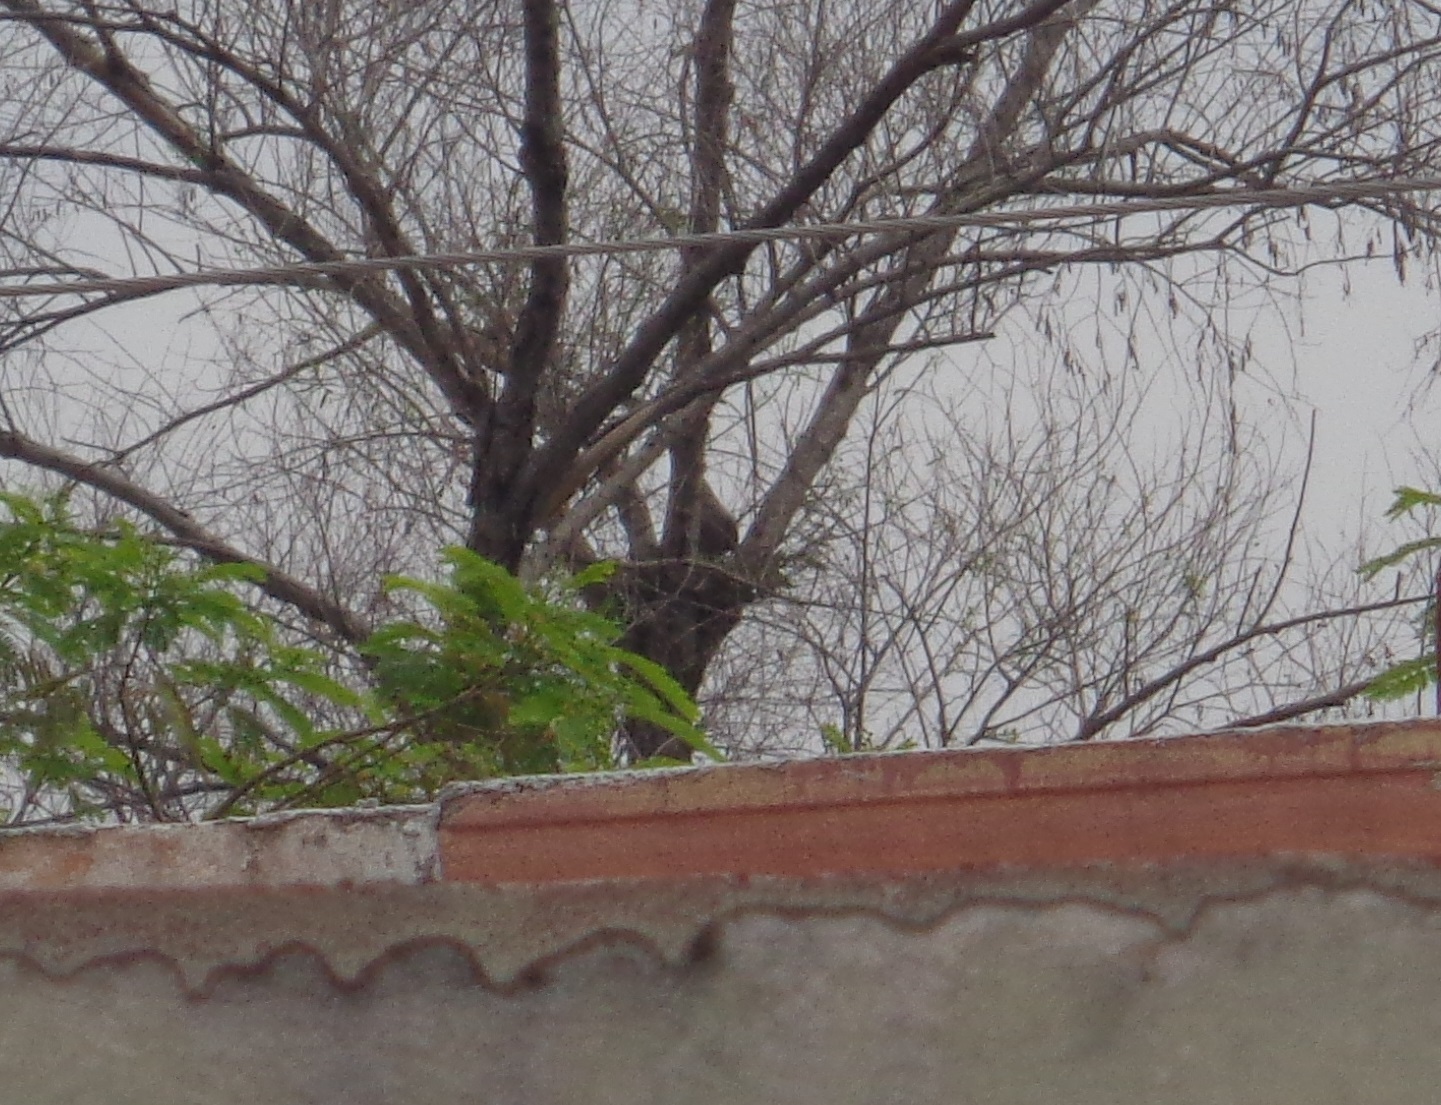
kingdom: Animalia
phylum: Chordata
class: Aves
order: Accipitriformes
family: Accipitridae
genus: Buteo
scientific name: Buteo nitidus
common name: Grey-lined hawk
